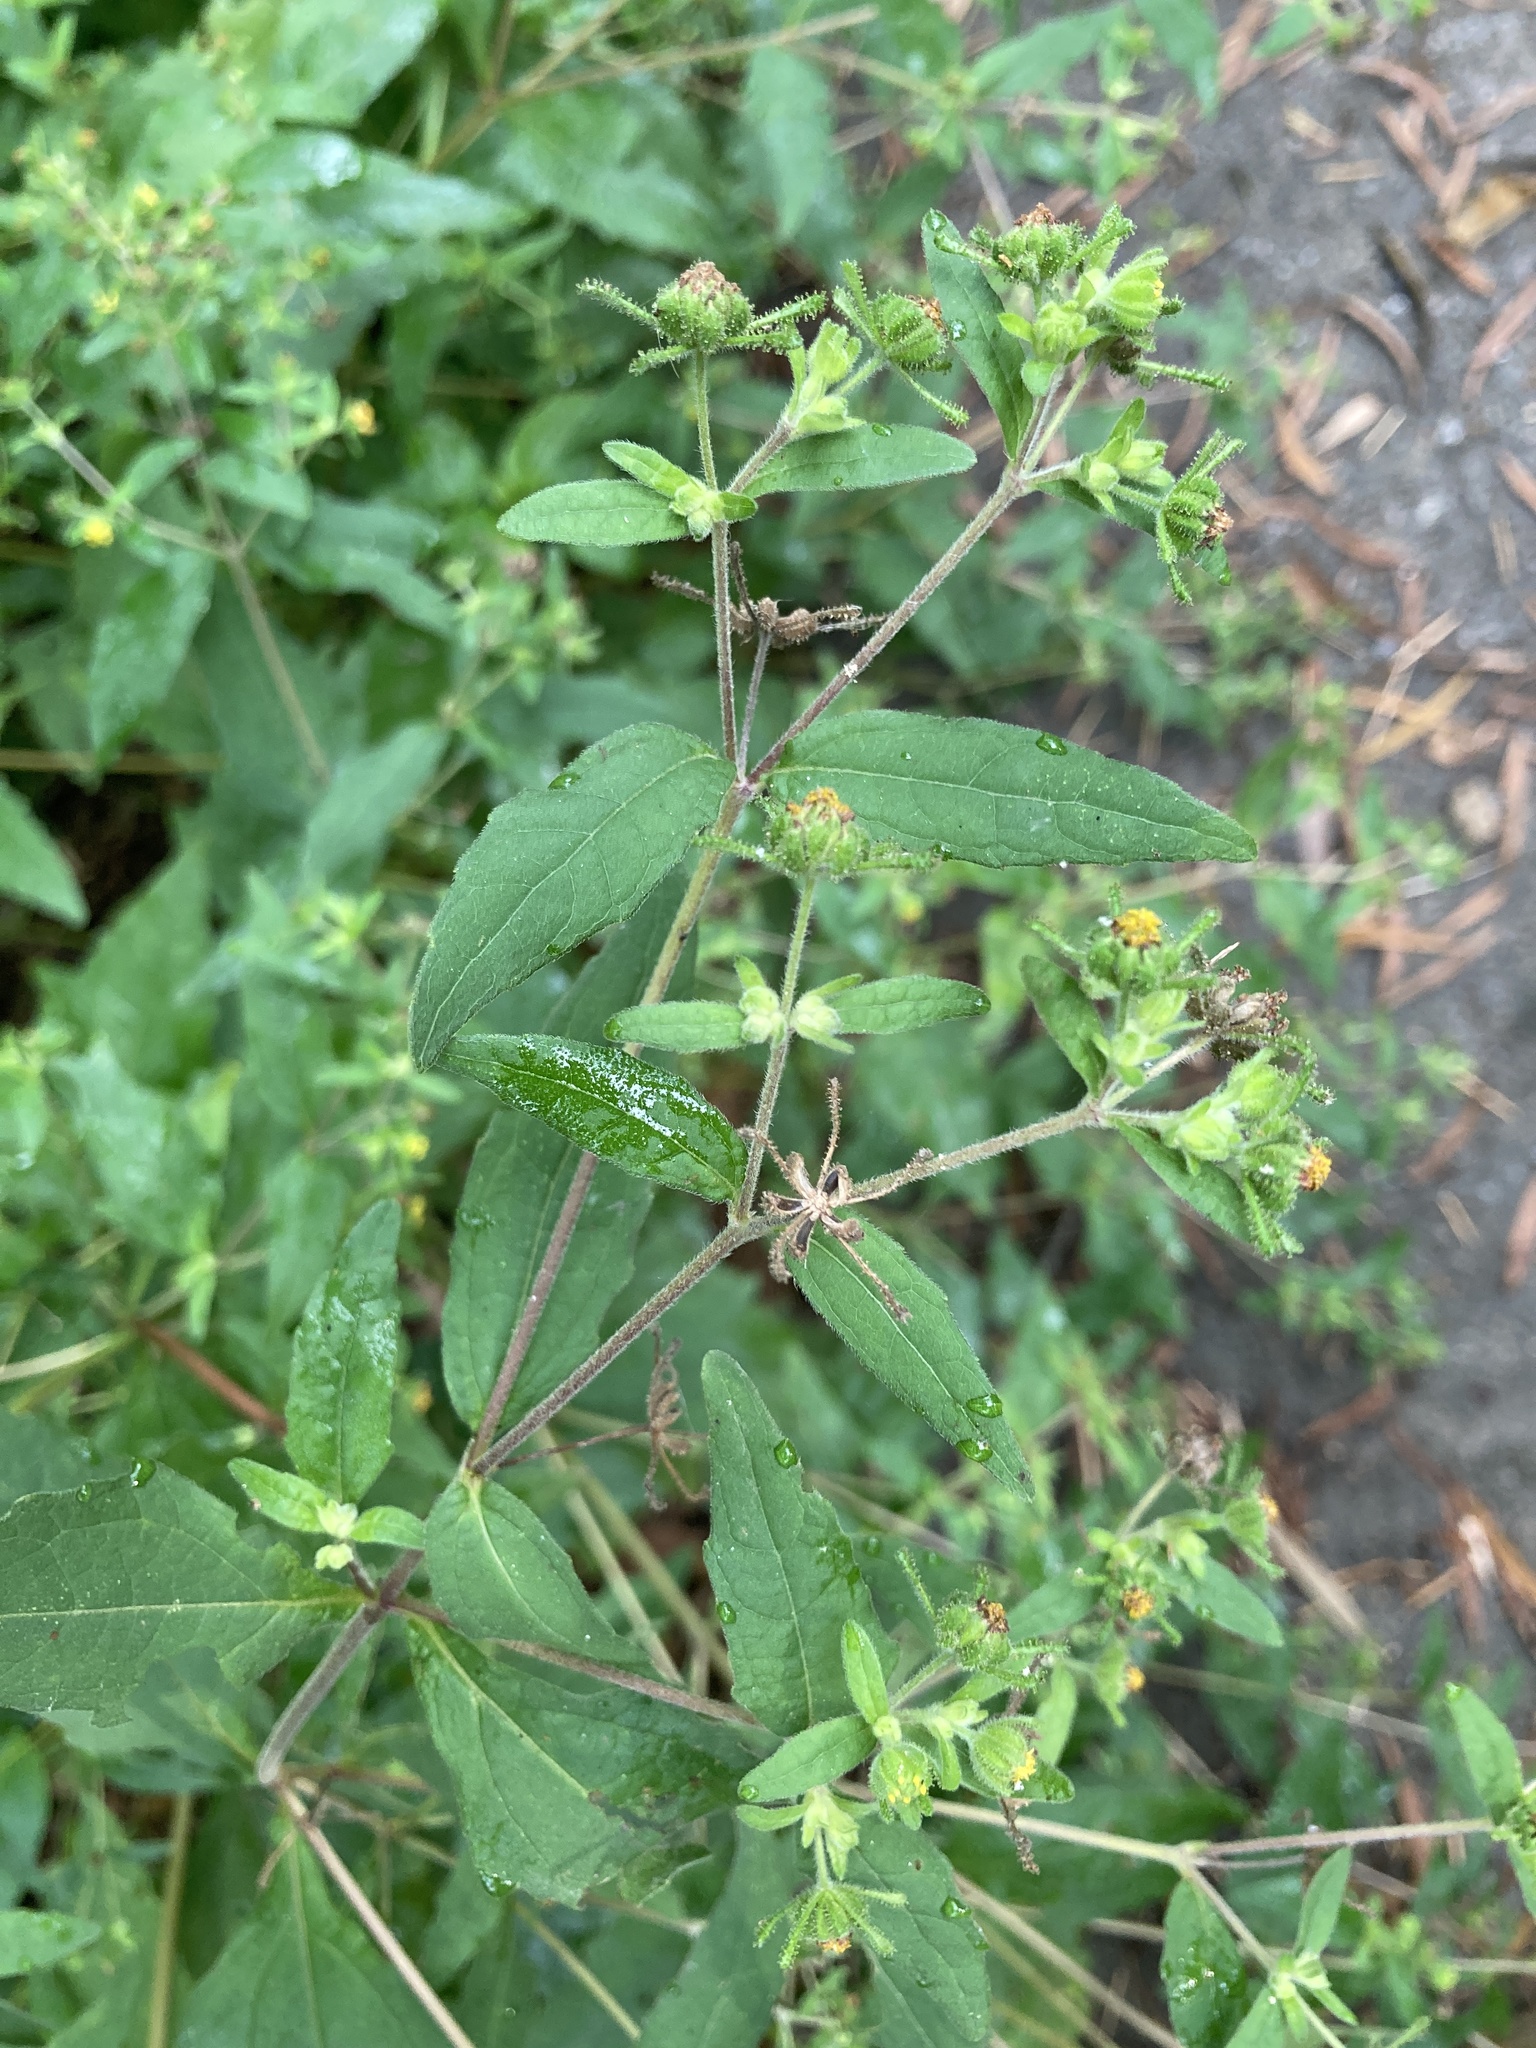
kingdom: Plantae
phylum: Tracheophyta
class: Magnoliopsida
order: Asterales
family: Asteraceae
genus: Sigesbeckia
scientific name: Sigesbeckia orientalis
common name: Eastern st paul's-wort
